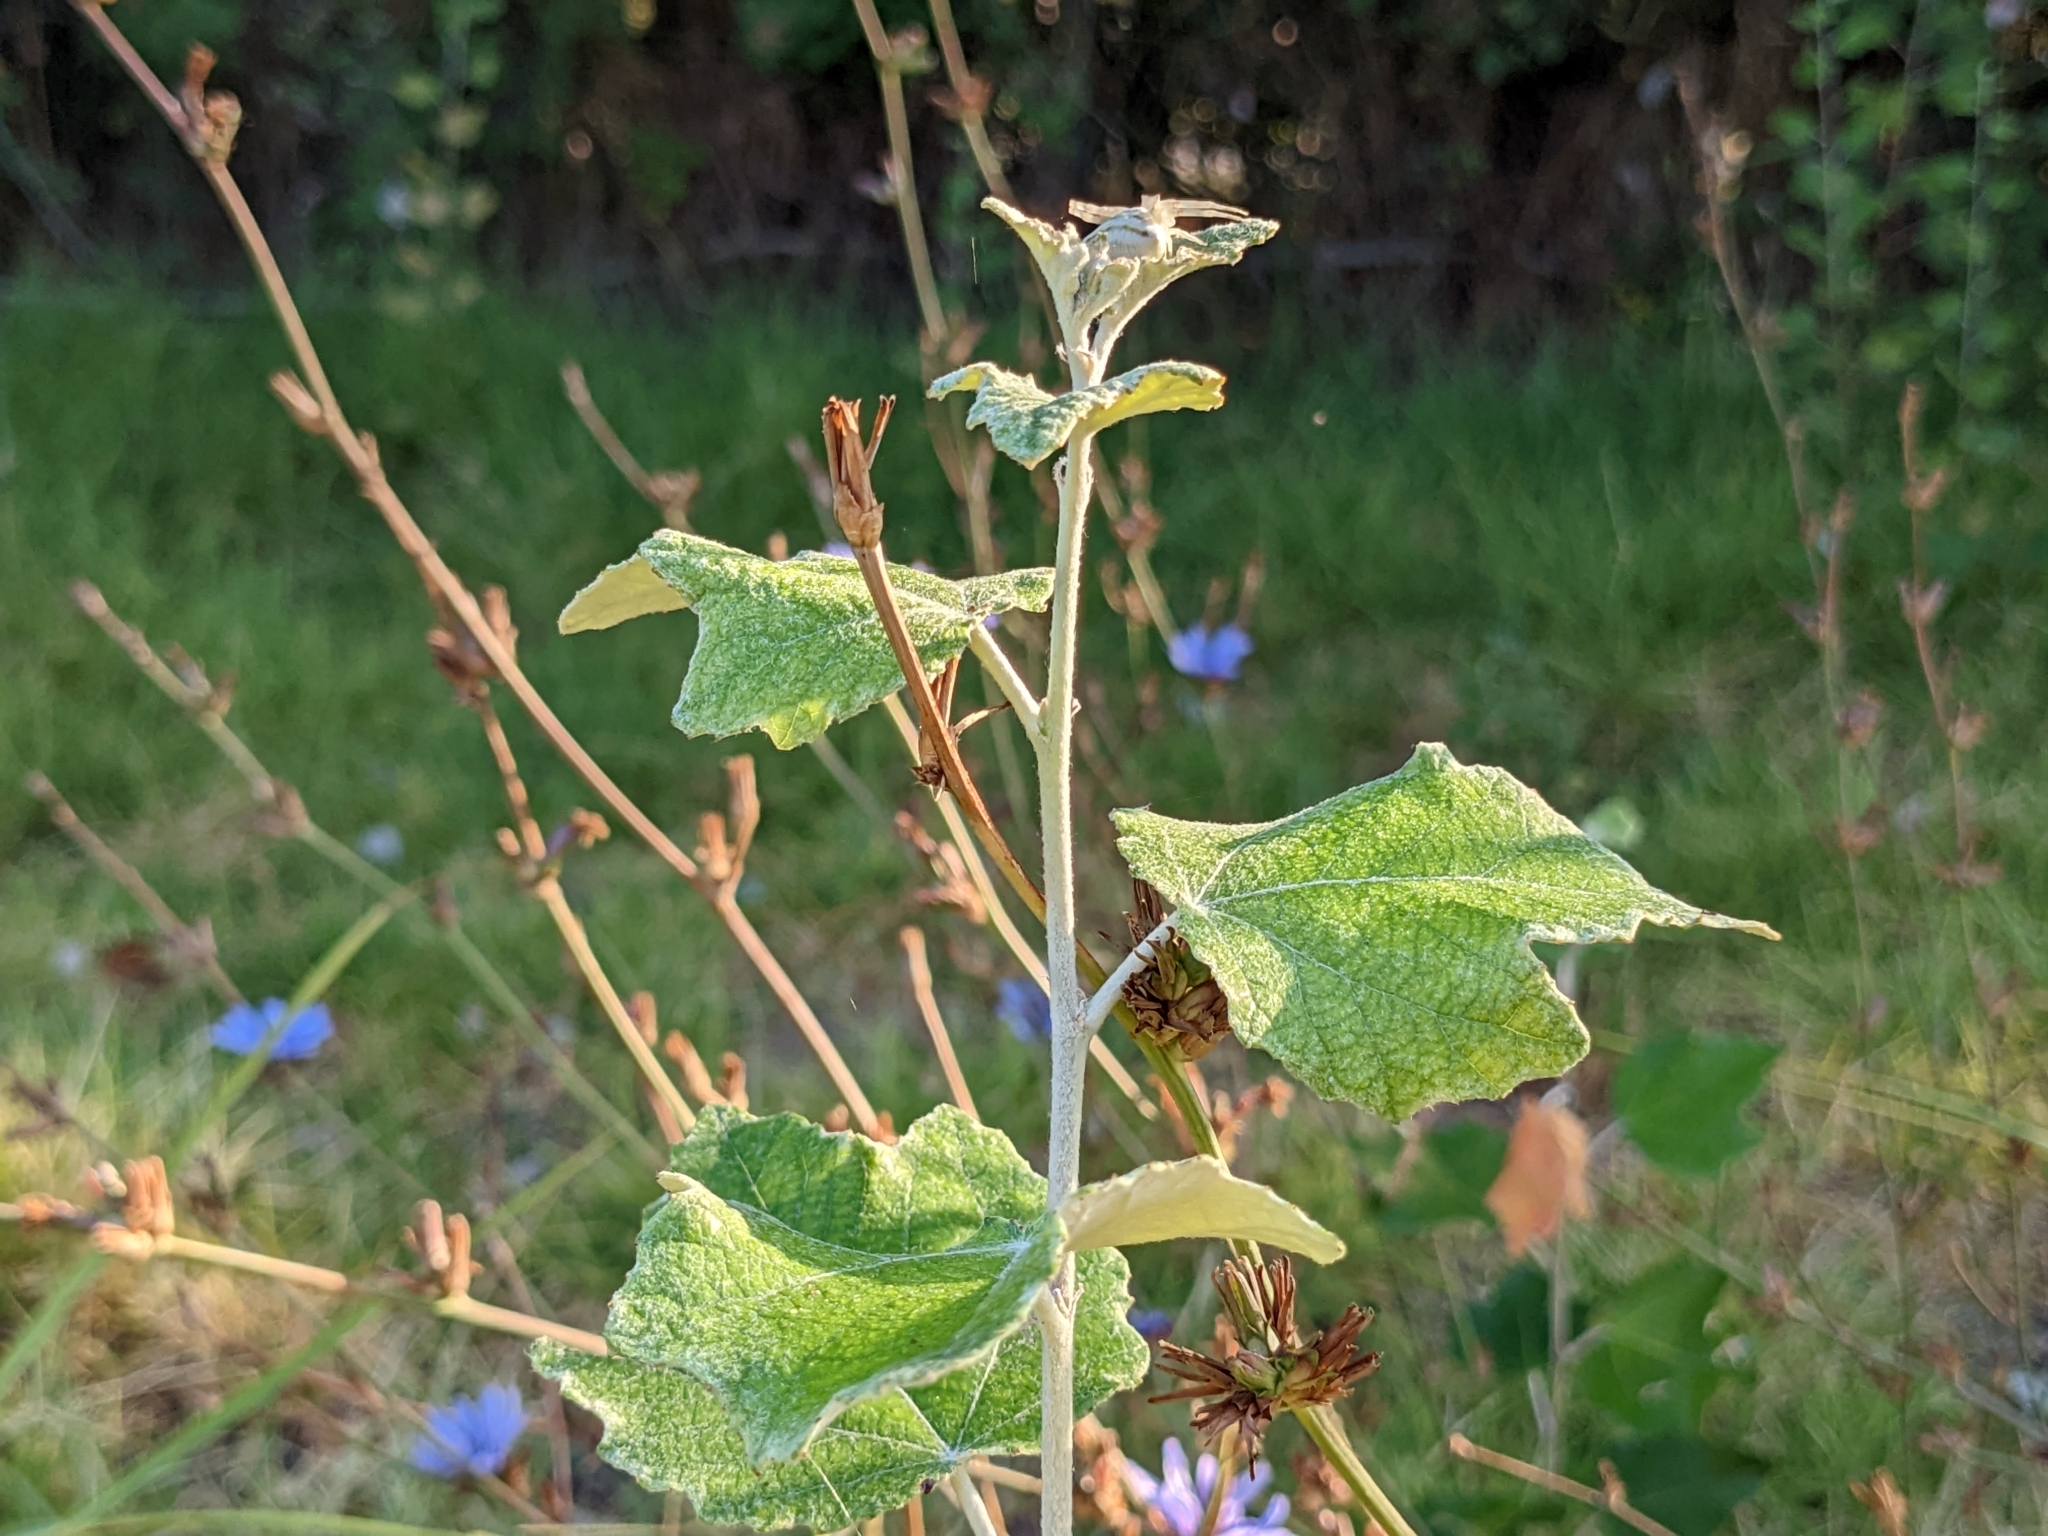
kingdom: Plantae
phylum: Tracheophyta
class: Magnoliopsida
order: Malpighiales
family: Salicaceae
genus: Populus
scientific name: Populus alba
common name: White poplar
